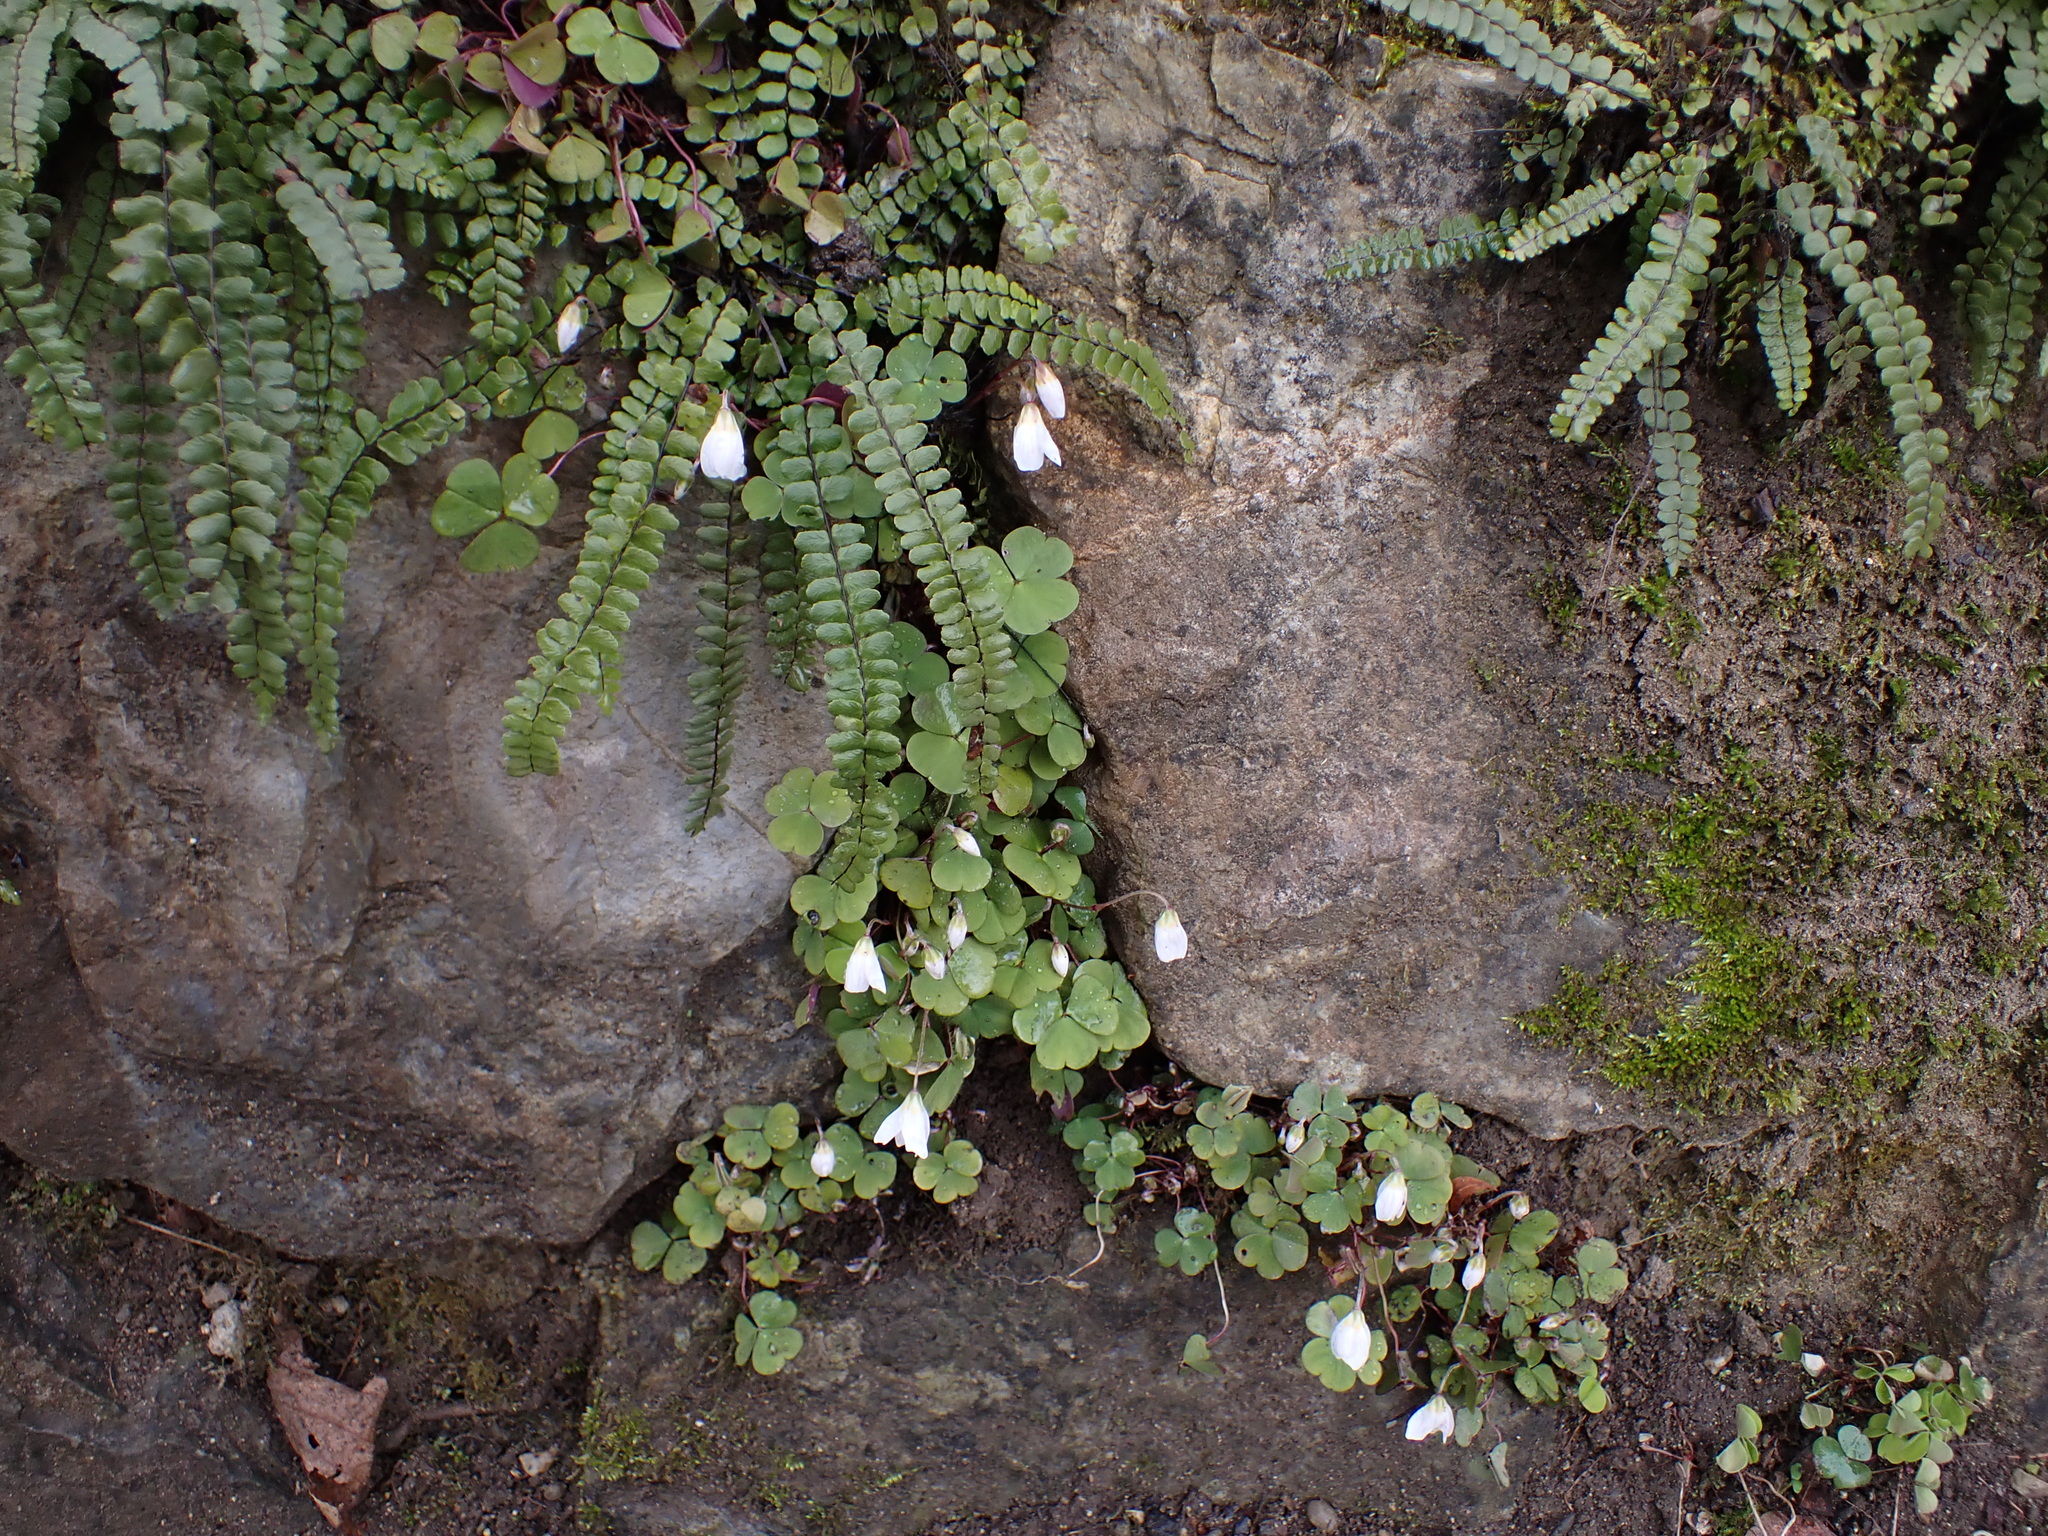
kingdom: Plantae
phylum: Tracheophyta
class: Magnoliopsida
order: Oxalidales
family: Oxalidaceae
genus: Oxalis
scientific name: Oxalis acetosella
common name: Wood-sorrel
